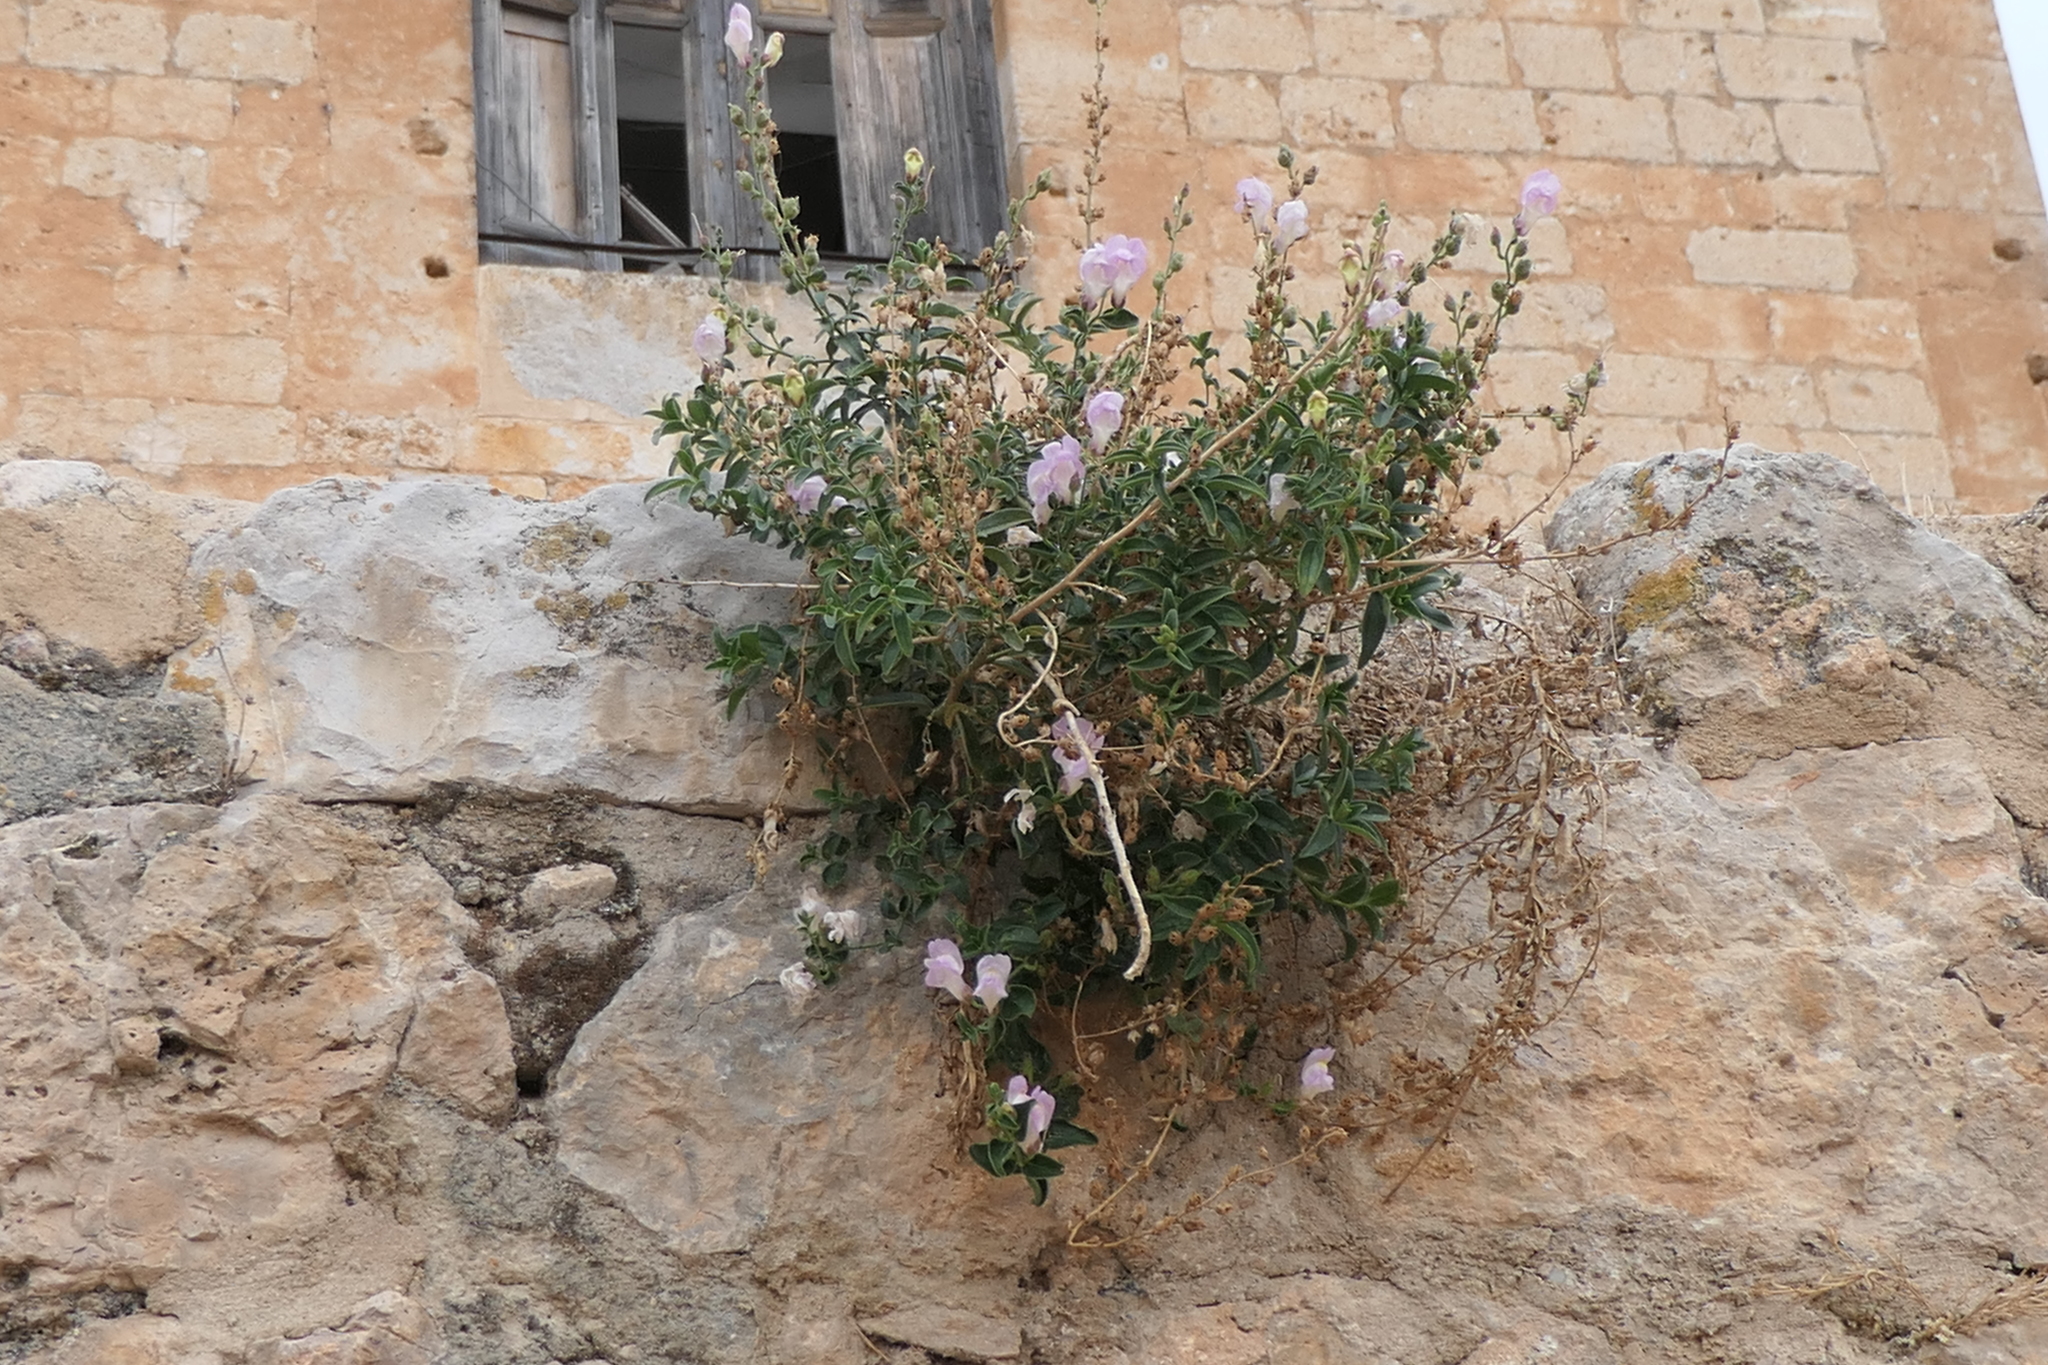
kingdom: Plantae
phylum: Tracheophyta
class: Magnoliopsida
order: Lamiales
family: Plantaginaceae
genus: Antirrhinum
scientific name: Antirrhinum graniticum
